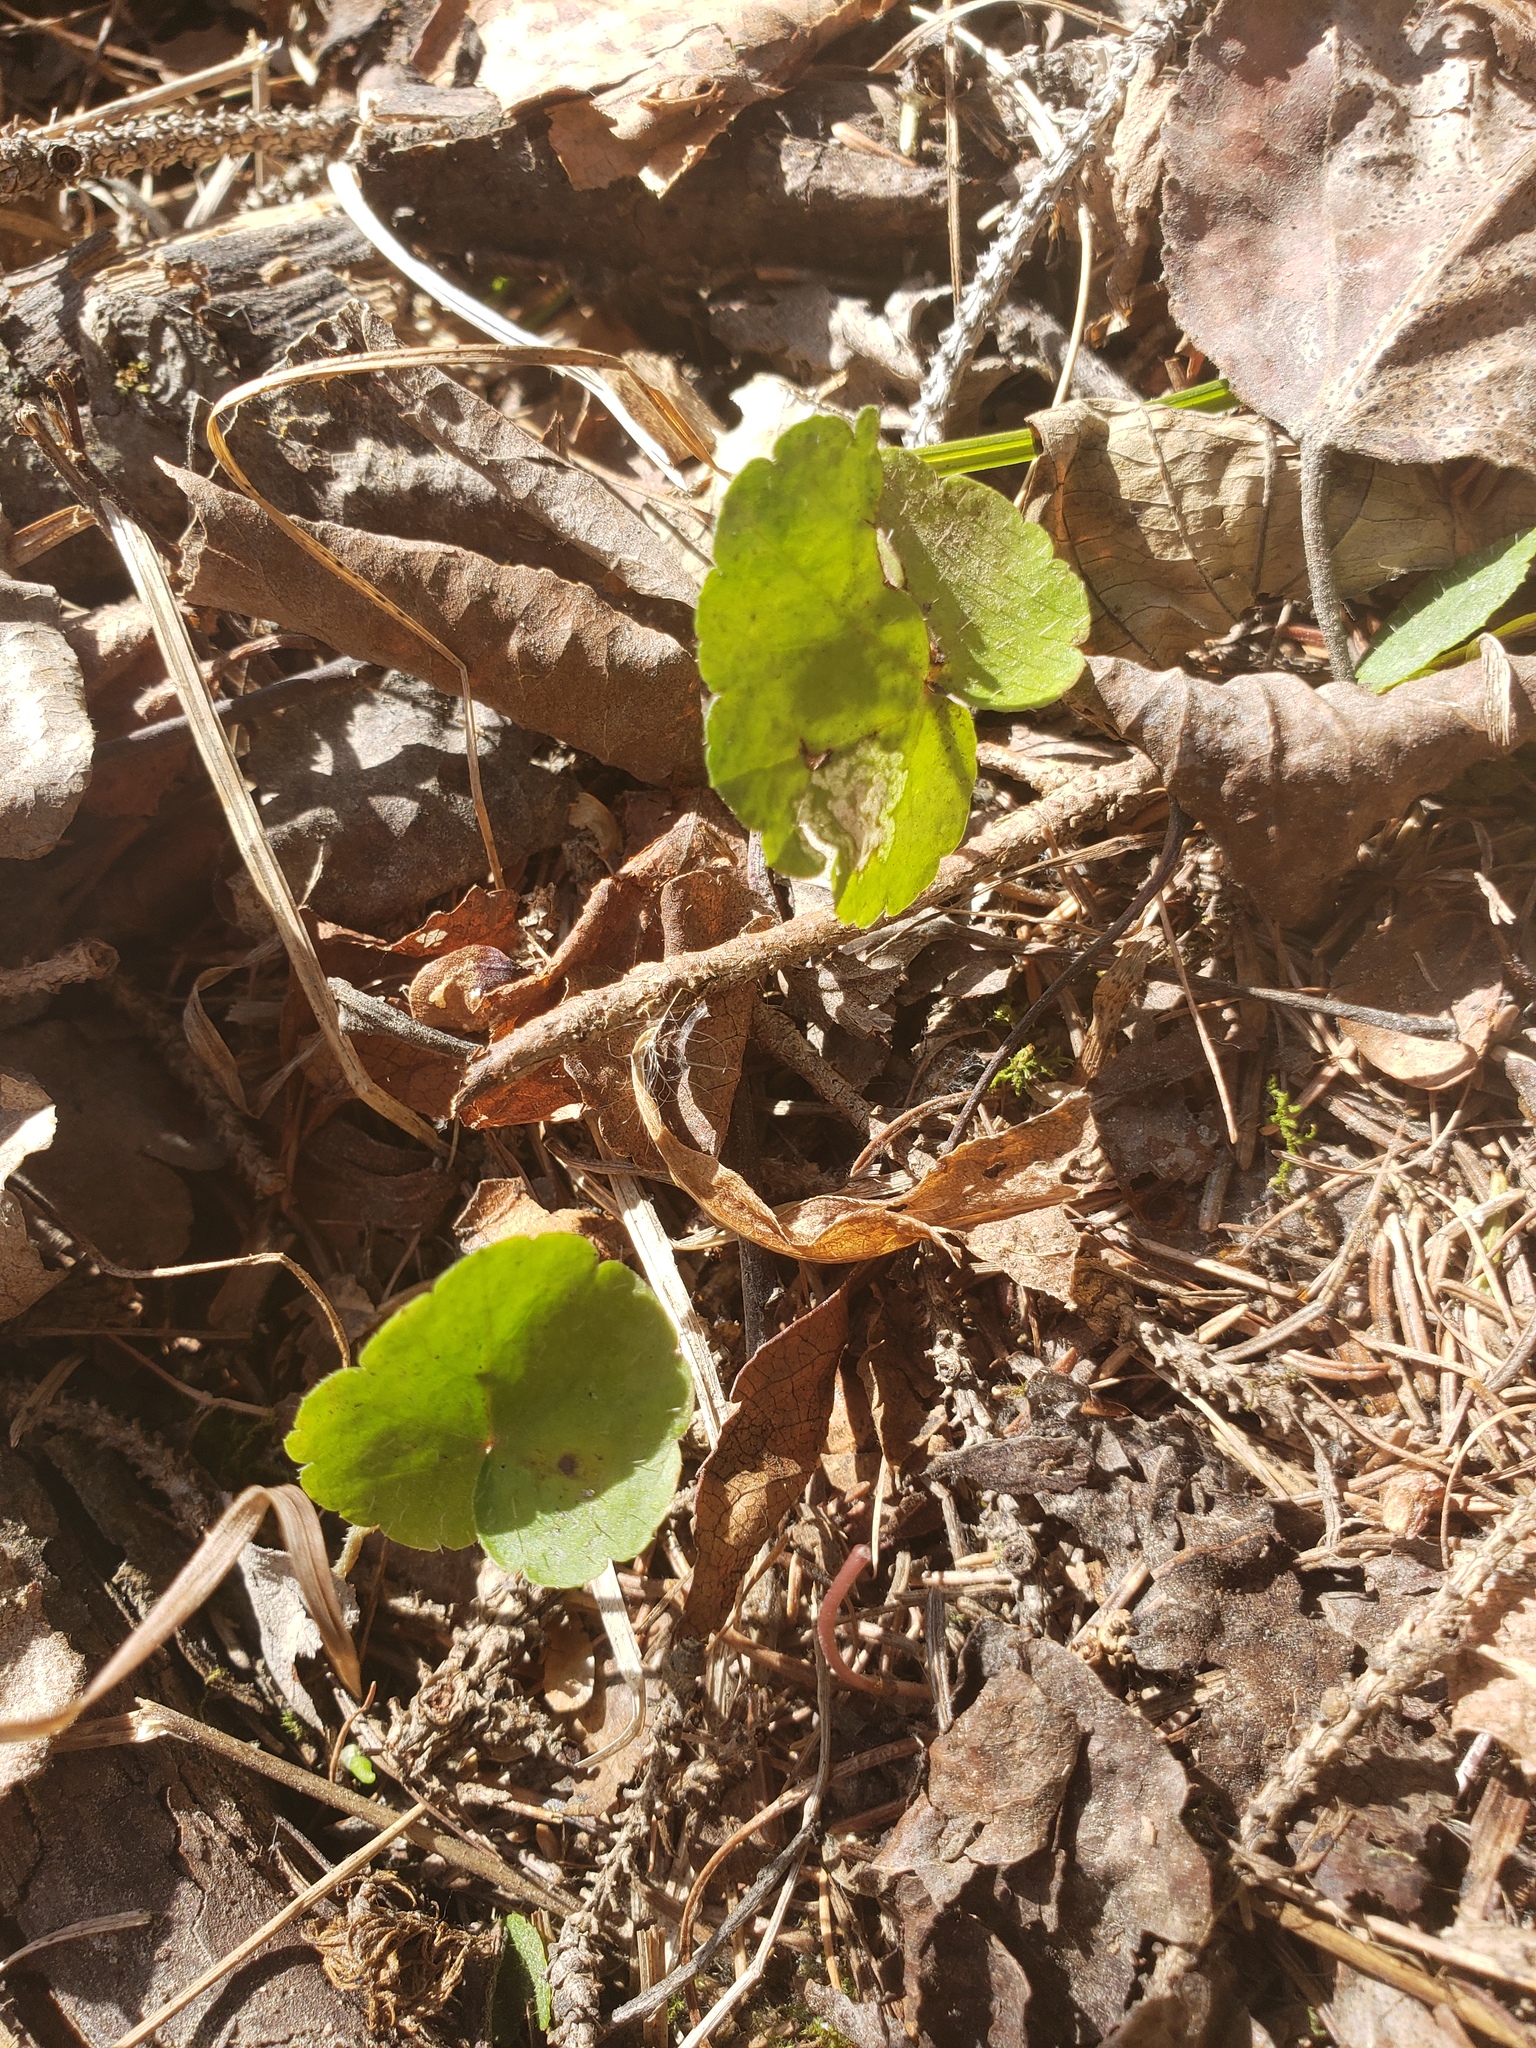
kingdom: Plantae
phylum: Tracheophyta
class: Magnoliopsida
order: Saxifragales
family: Saxifragaceae
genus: Mitella
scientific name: Mitella nuda
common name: Bare-stemmed bishop's-cap
